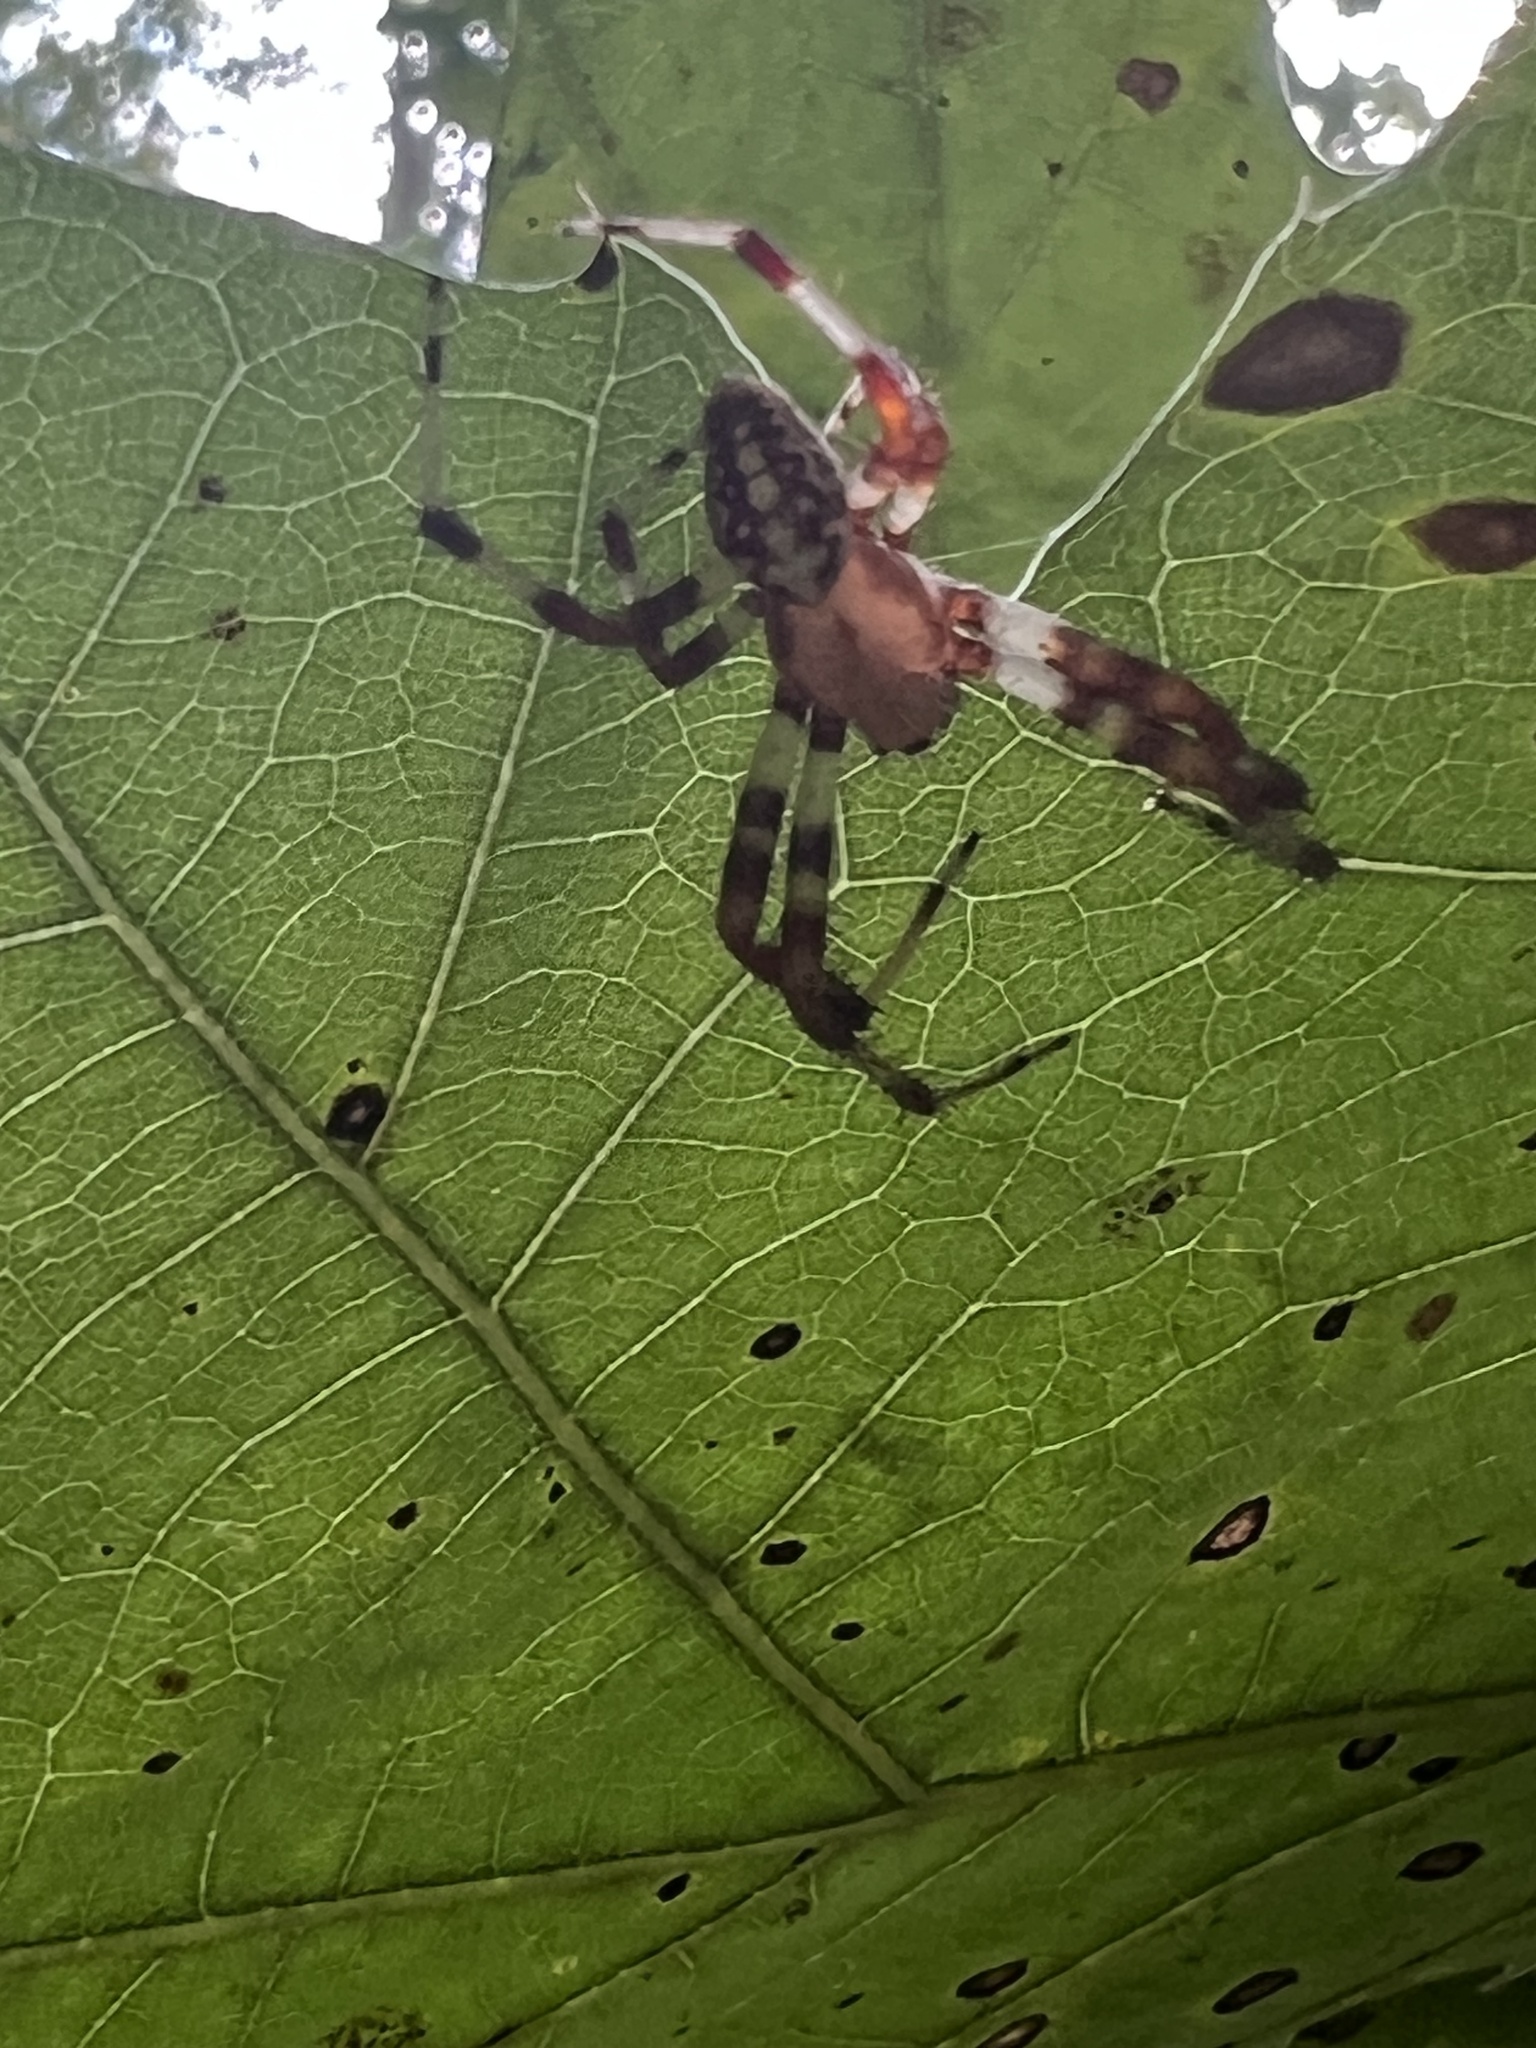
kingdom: Animalia
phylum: Arthropoda
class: Arachnida
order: Araneae
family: Araneidae
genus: Araneus
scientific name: Araneus marmoreus
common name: Marbled orbweaver
